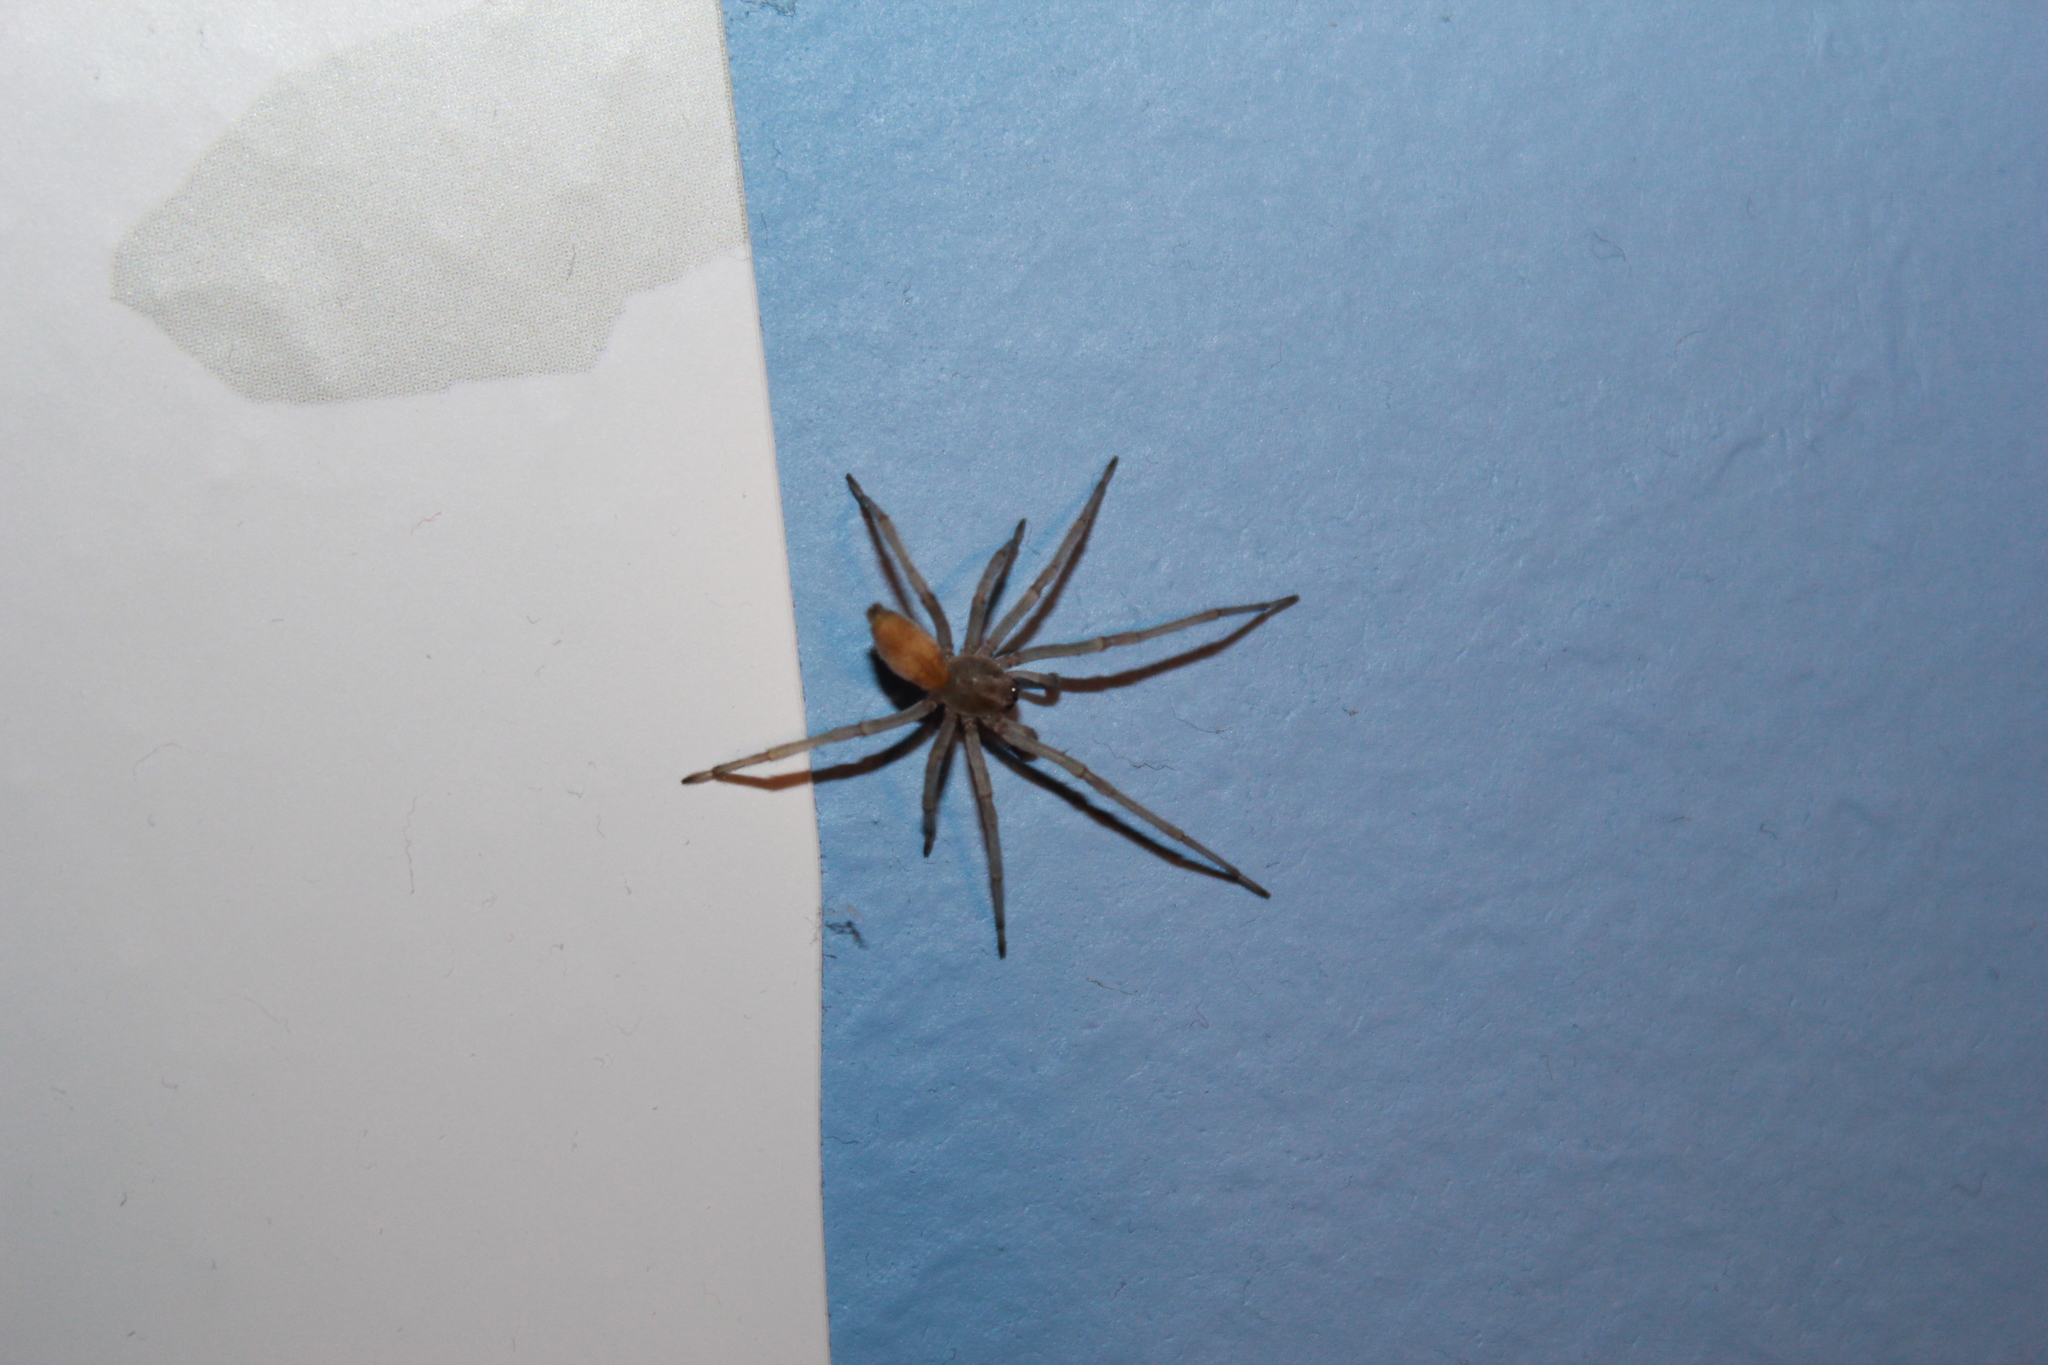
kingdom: Animalia
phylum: Arthropoda
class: Arachnida
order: Araneae
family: Cheiracanthiidae
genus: Cheiracanthium
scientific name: Cheiracanthium mildei
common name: Northern yellow sac spider
